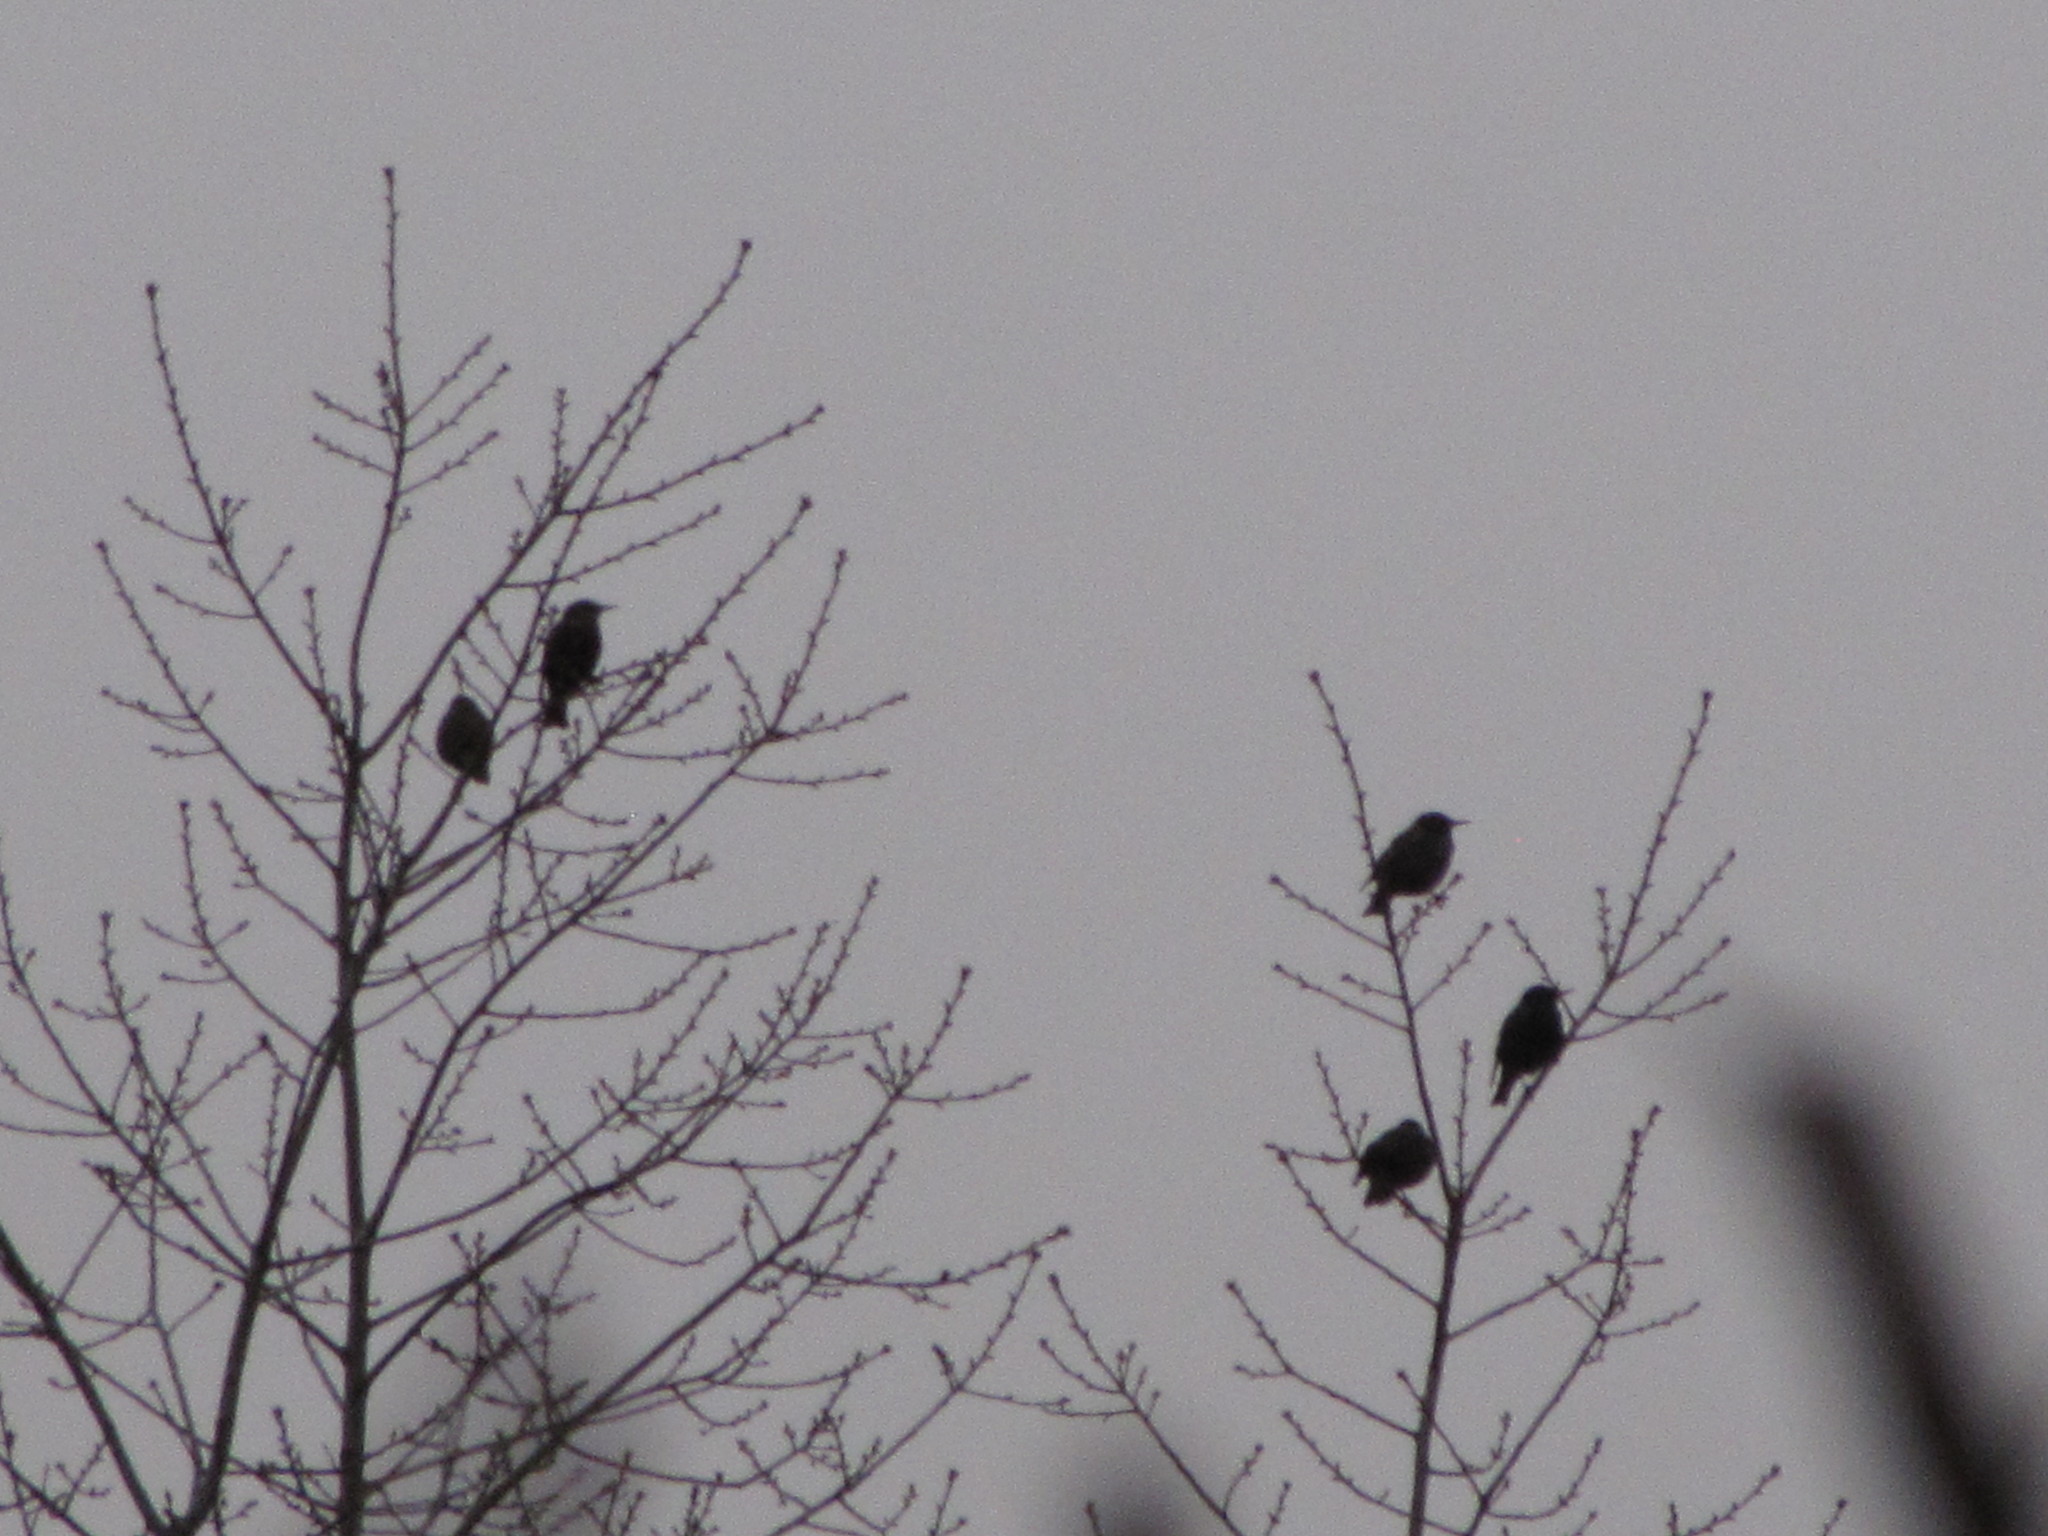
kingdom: Animalia
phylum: Chordata
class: Aves
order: Passeriformes
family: Sturnidae
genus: Sturnus
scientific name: Sturnus vulgaris
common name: Common starling
